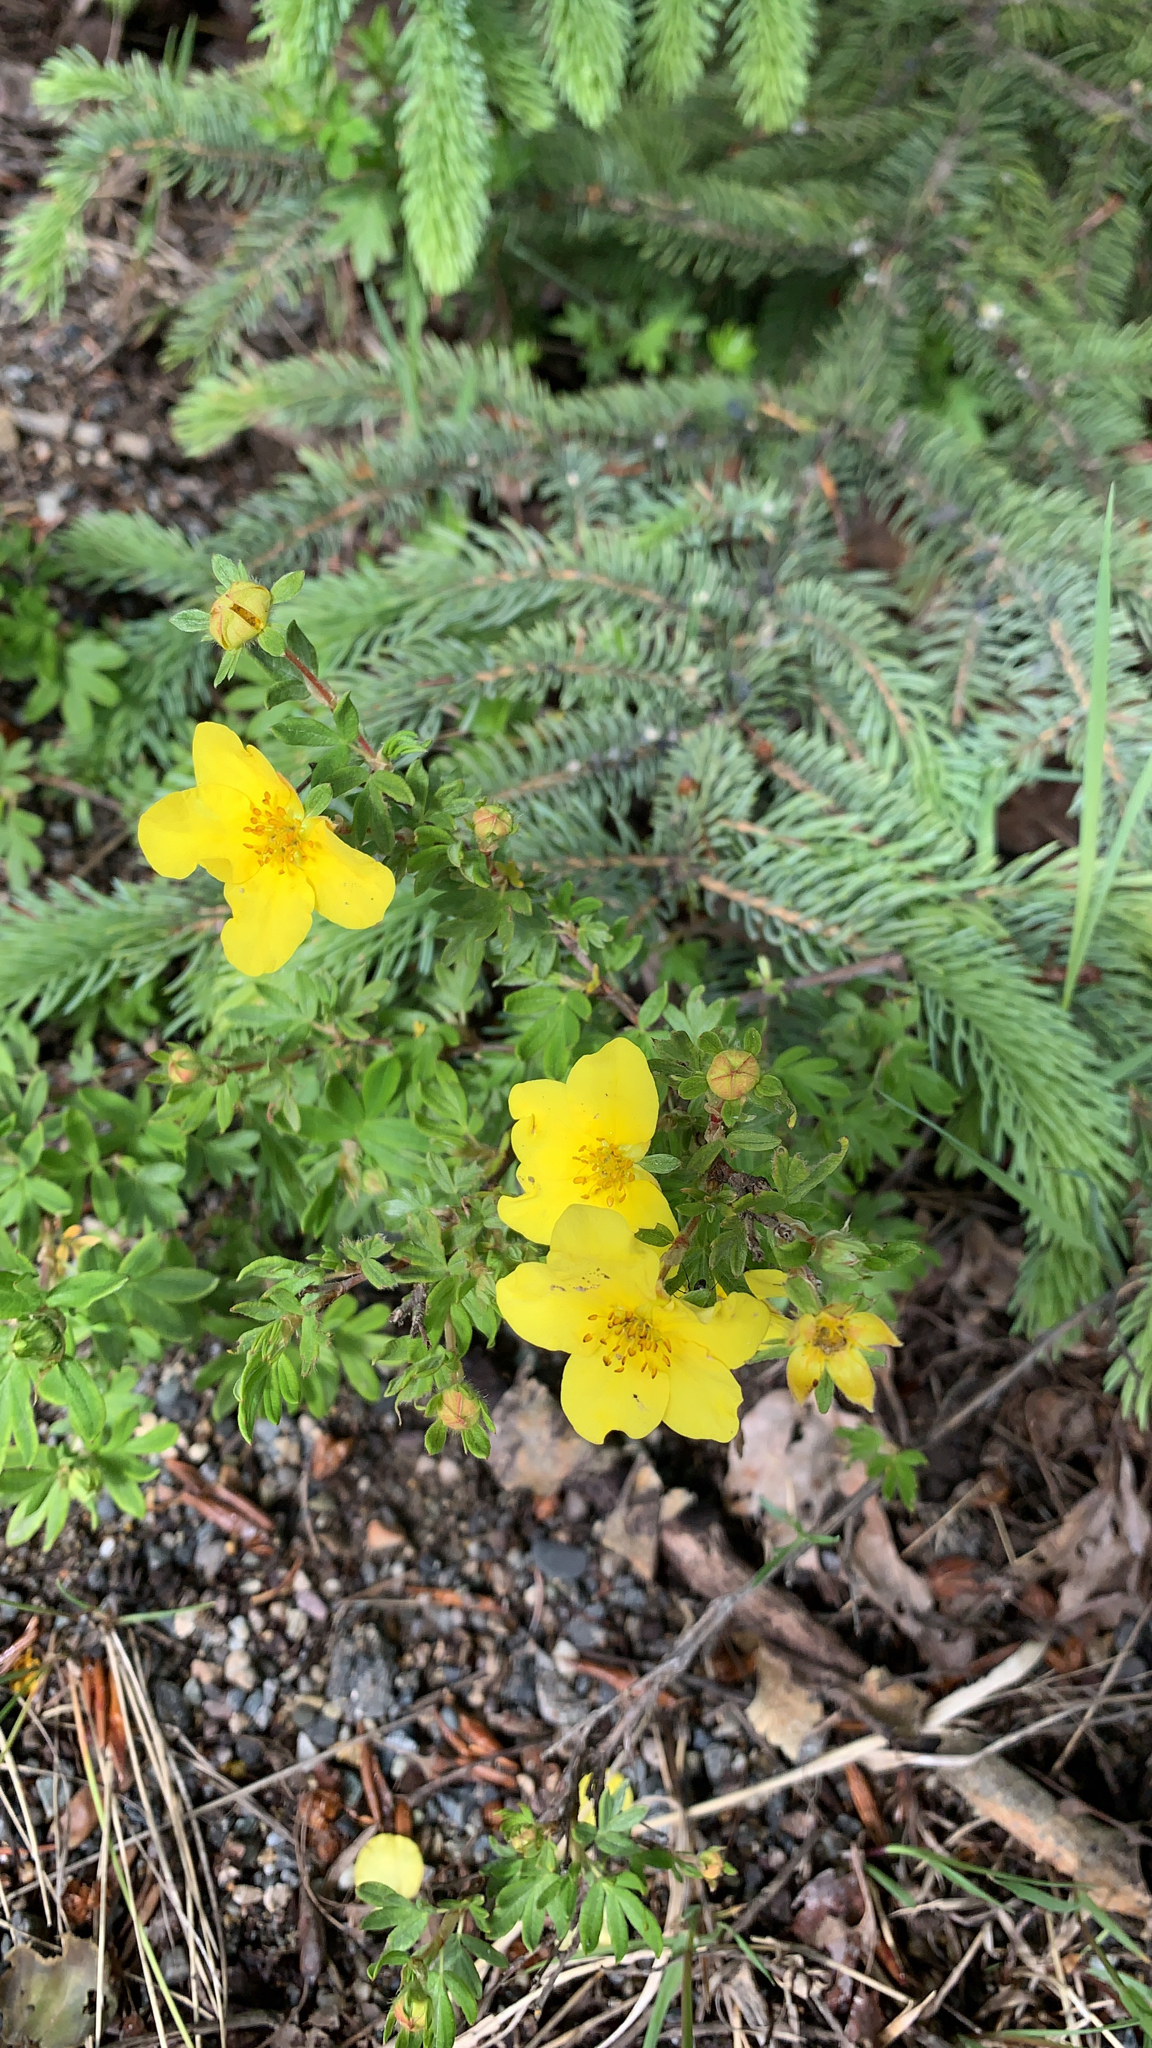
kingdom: Plantae
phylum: Tracheophyta
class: Magnoliopsida
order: Rosales
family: Rosaceae
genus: Dasiphora
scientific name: Dasiphora fruticosa
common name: Shrubby cinquefoil
